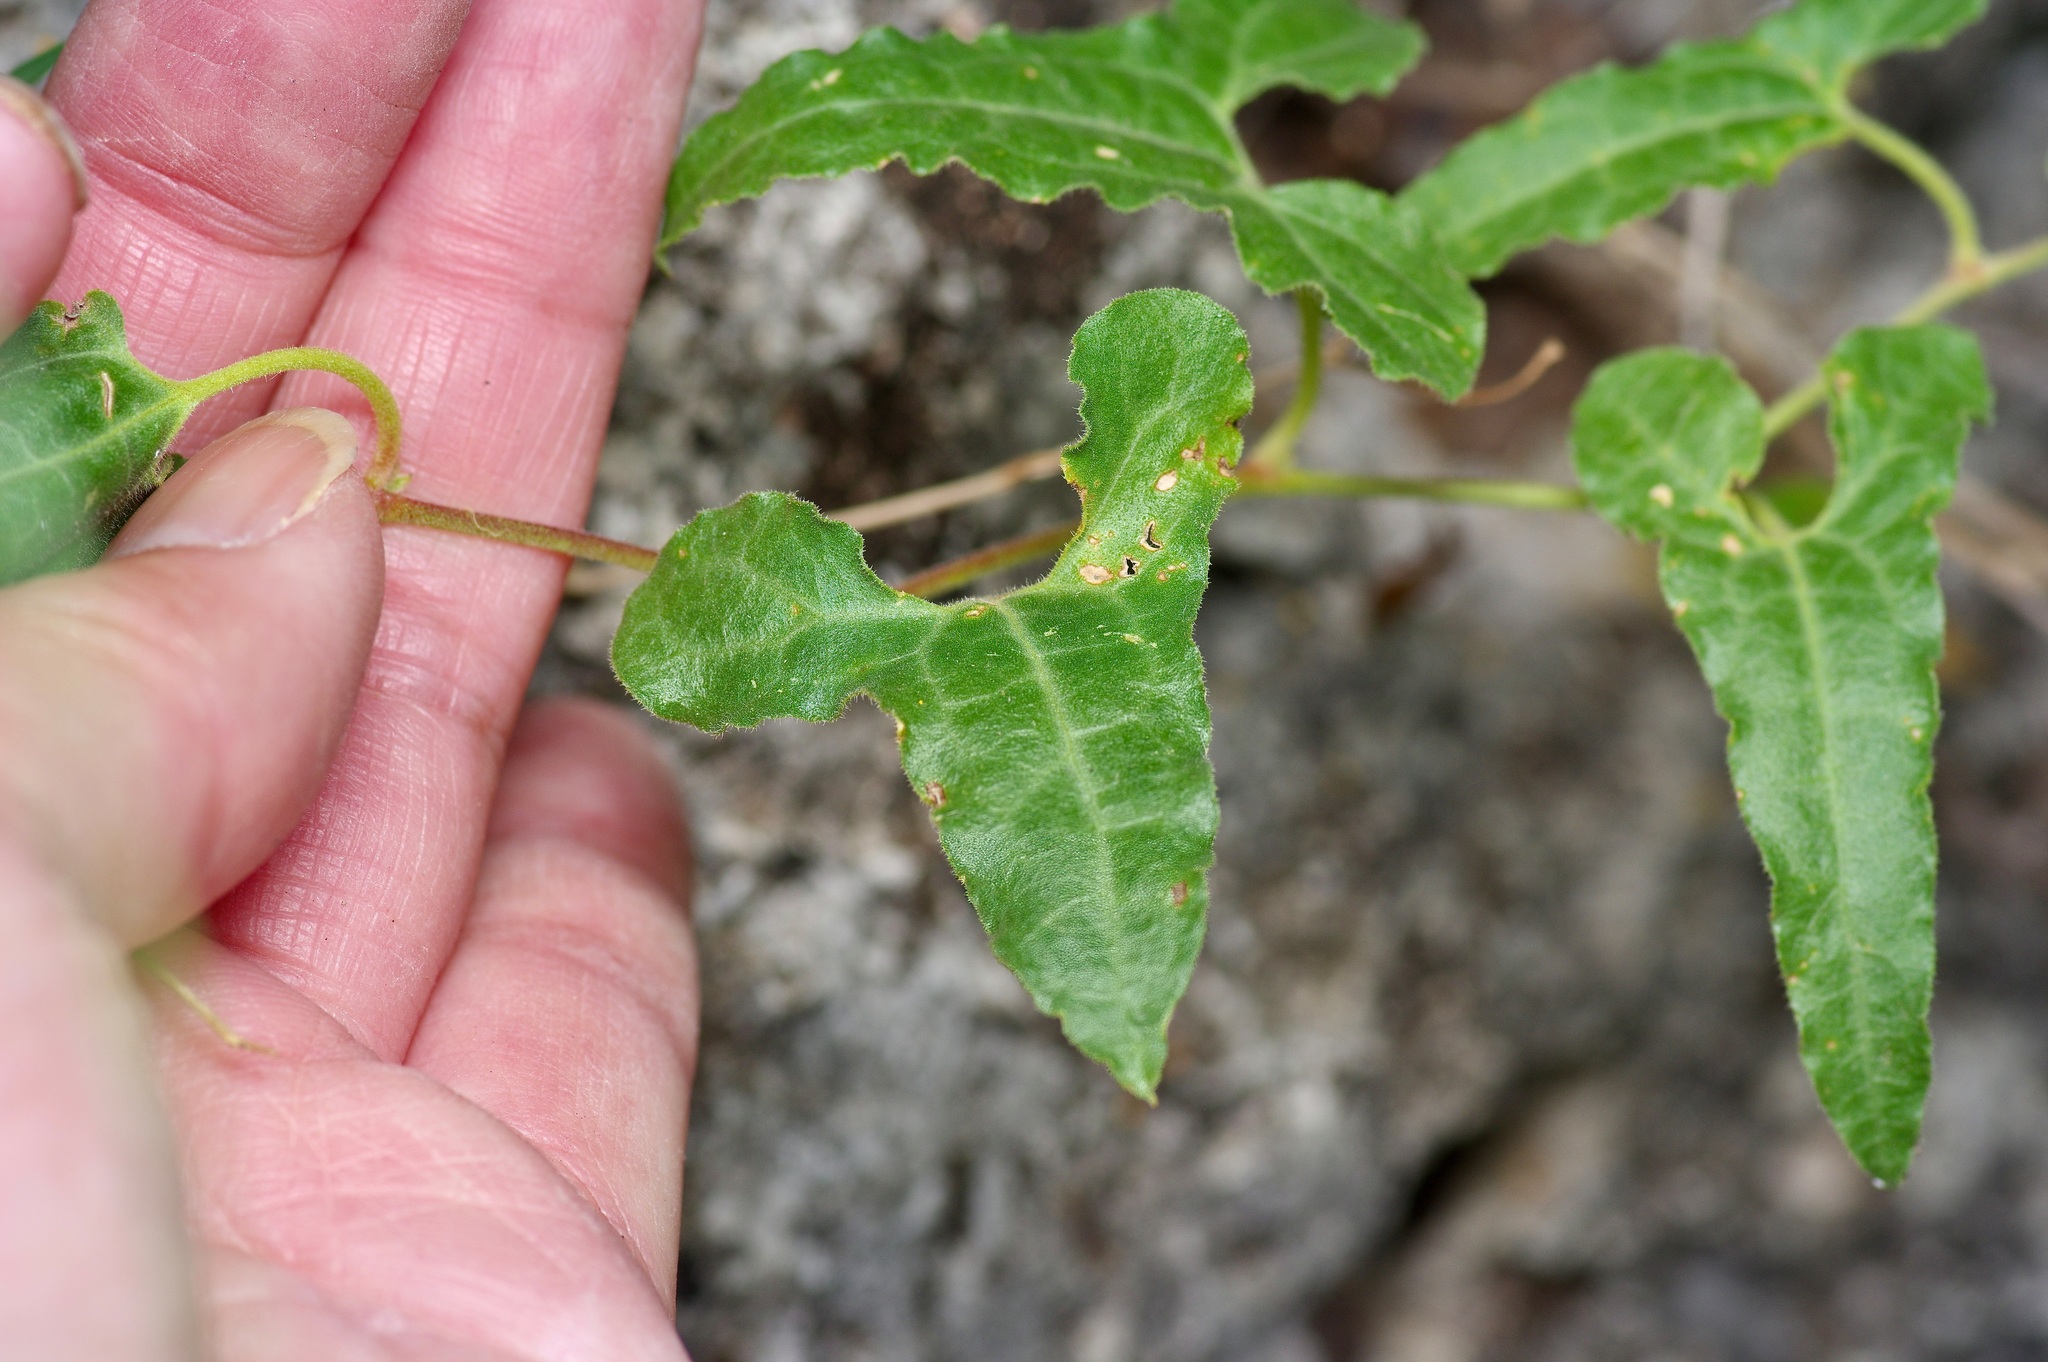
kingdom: Plantae
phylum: Tracheophyta
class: Magnoliopsida
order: Piperales
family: Aristolochiaceae
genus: Aristolochia
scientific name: Aristolochia coryi
